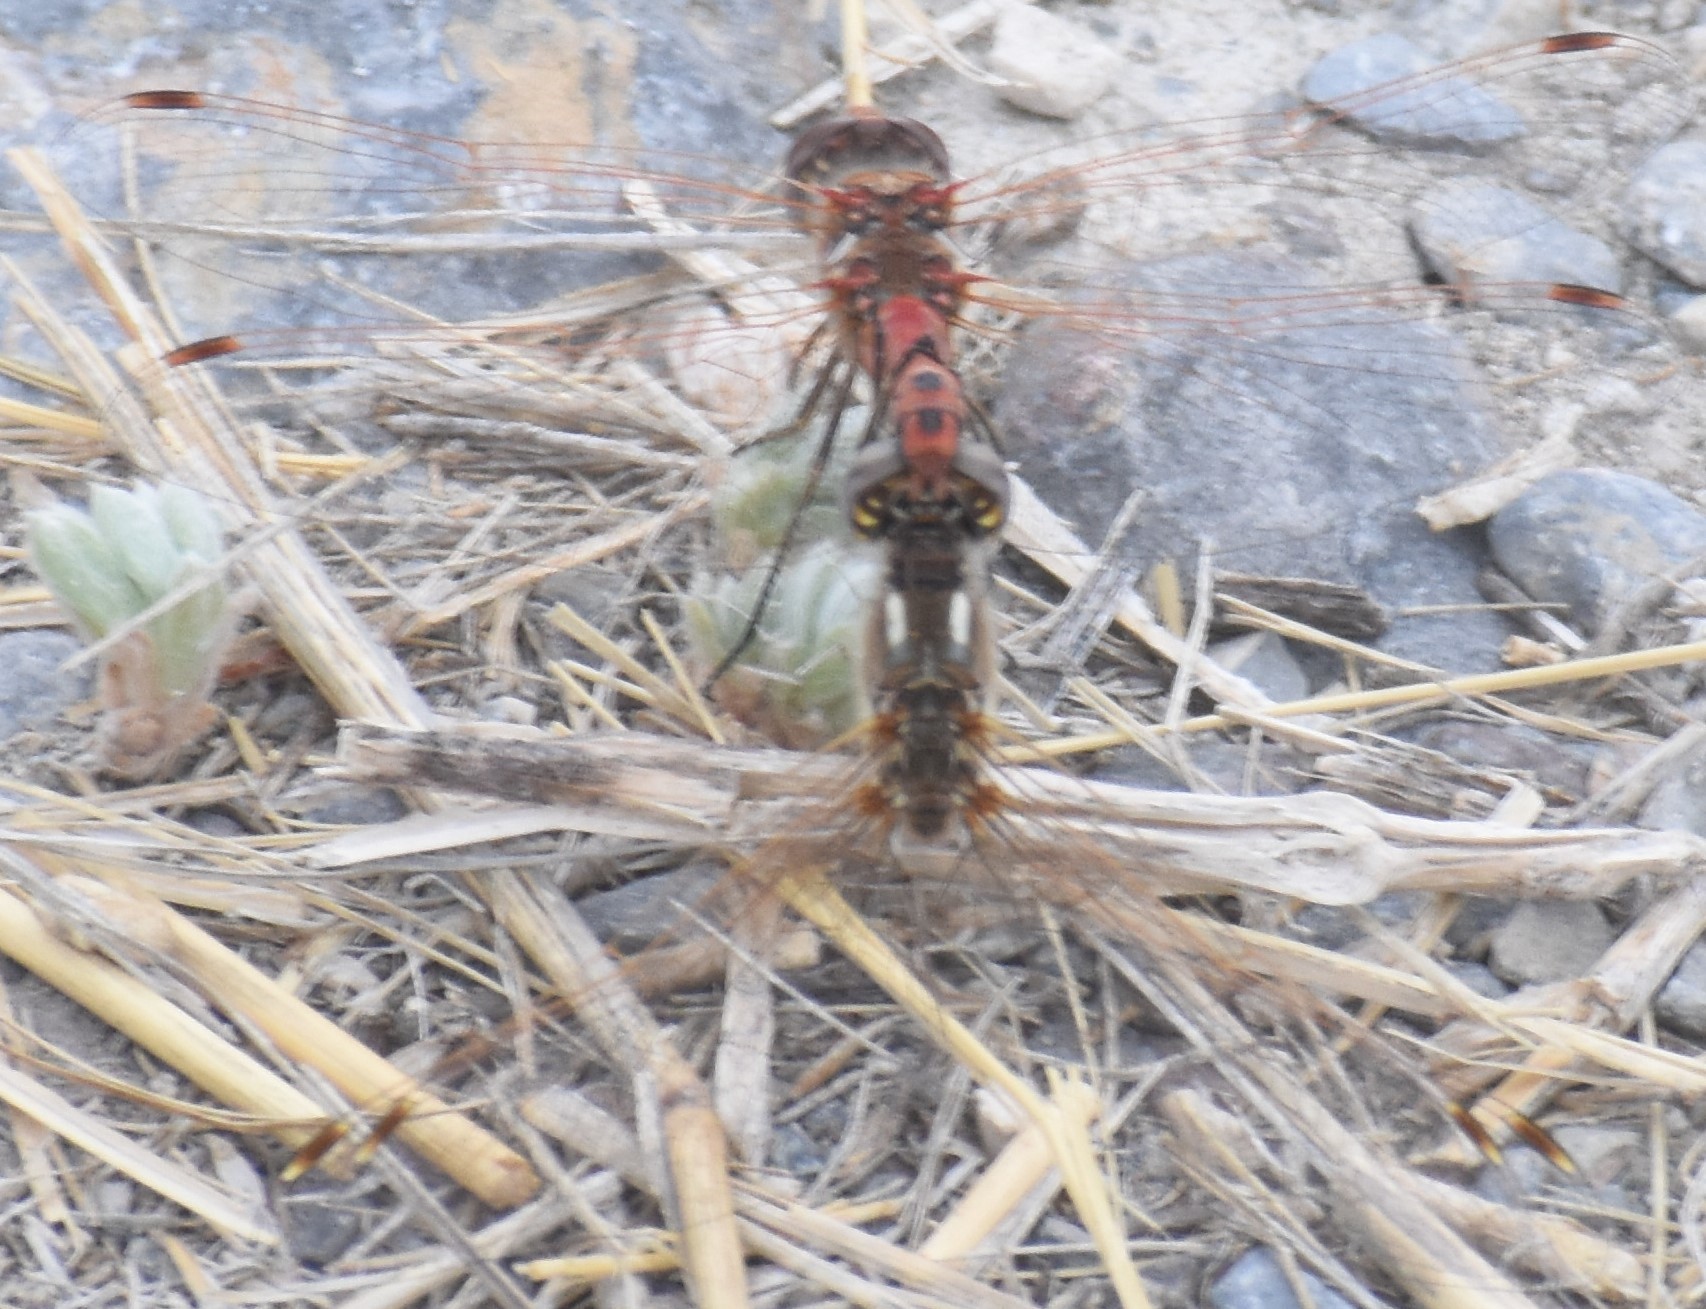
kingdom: Animalia
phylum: Arthropoda
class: Insecta
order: Odonata
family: Libellulidae
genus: Sympetrum
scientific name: Sympetrum corruptum
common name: Variegated meadowhawk
